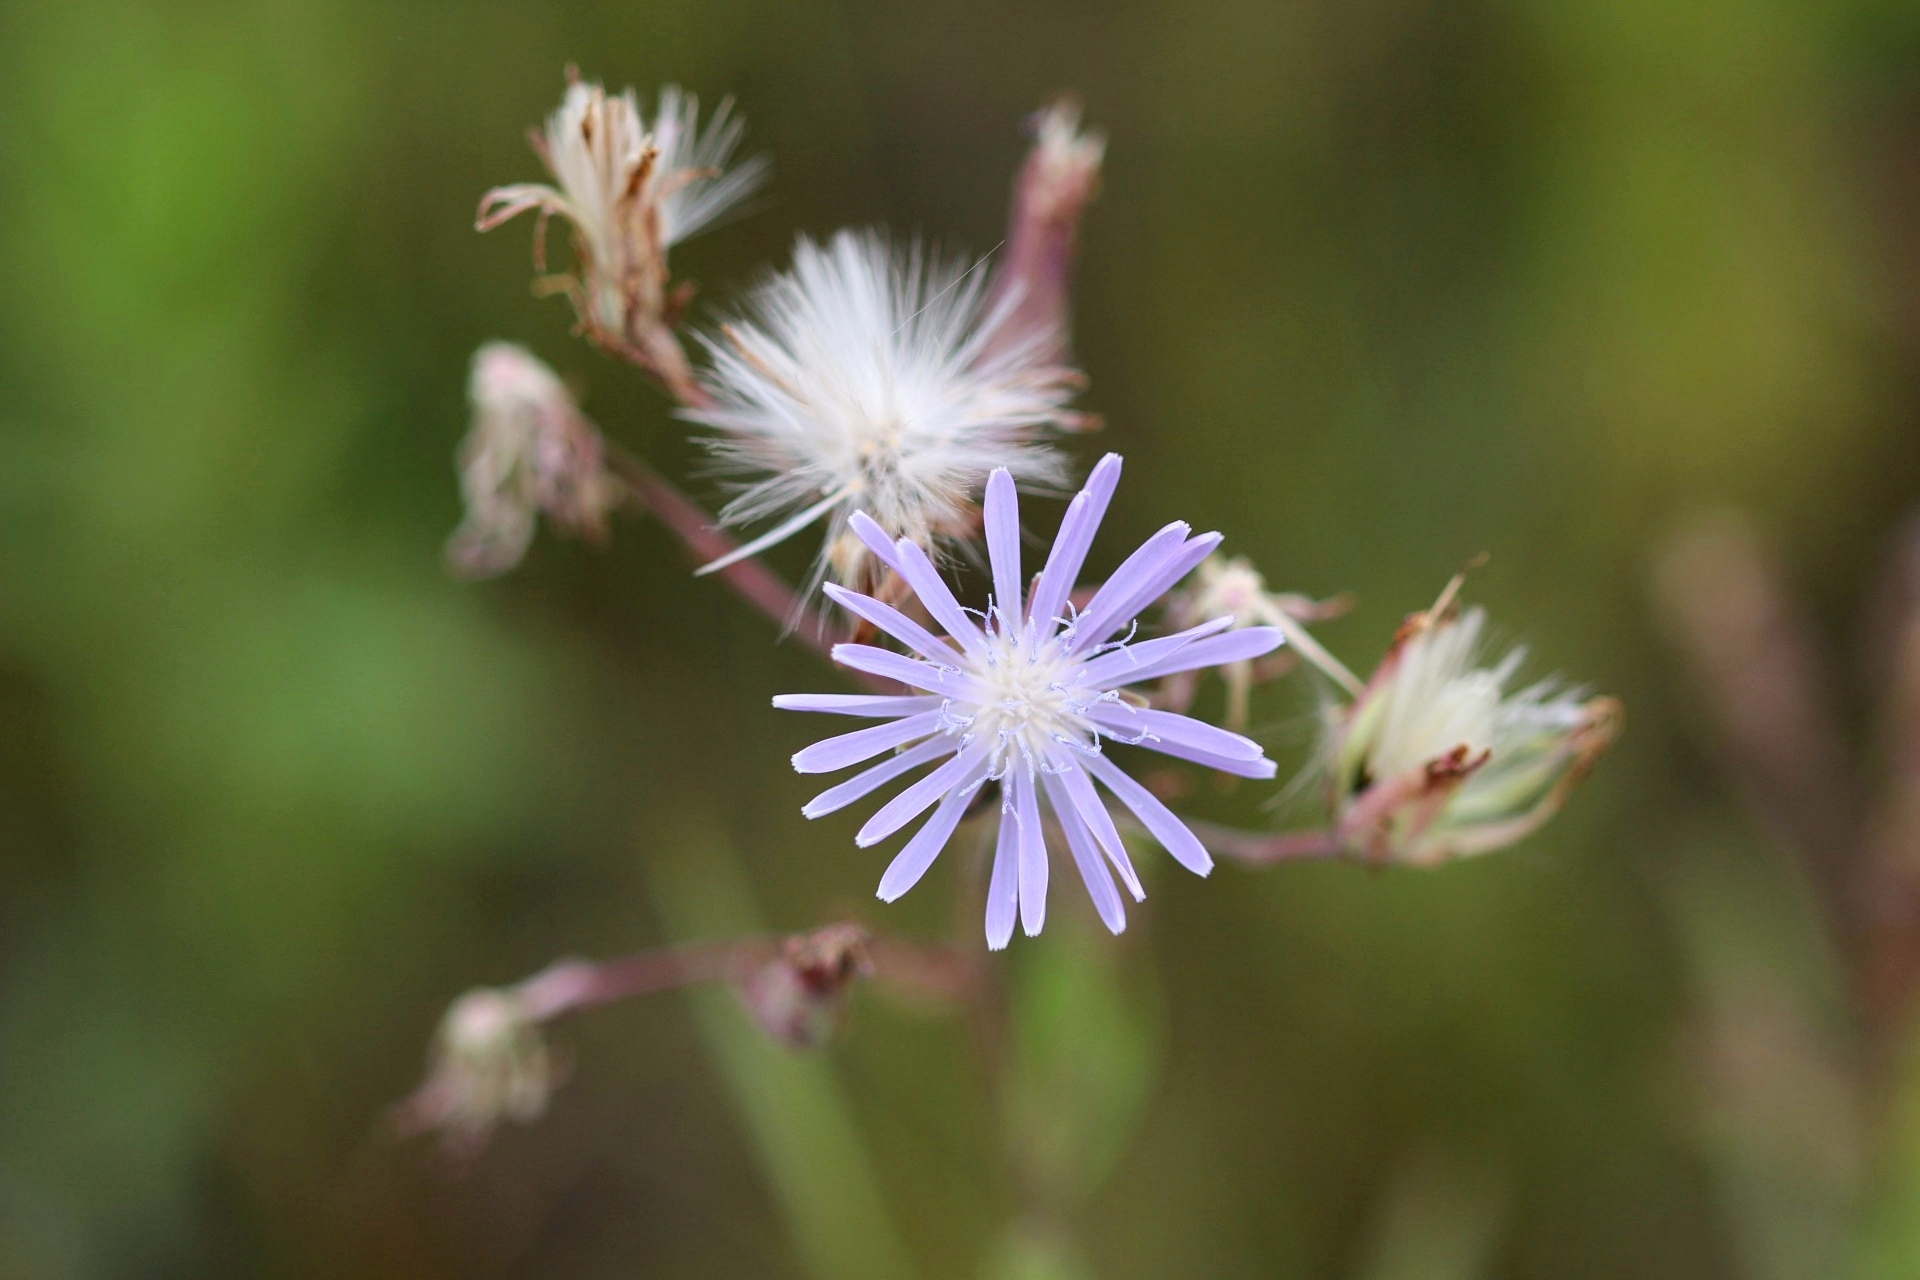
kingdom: Plantae
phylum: Tracheophyta
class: Magnoliopsida
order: Asterales
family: Asteraceae
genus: Lactuca
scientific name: Lactuca pulchella
